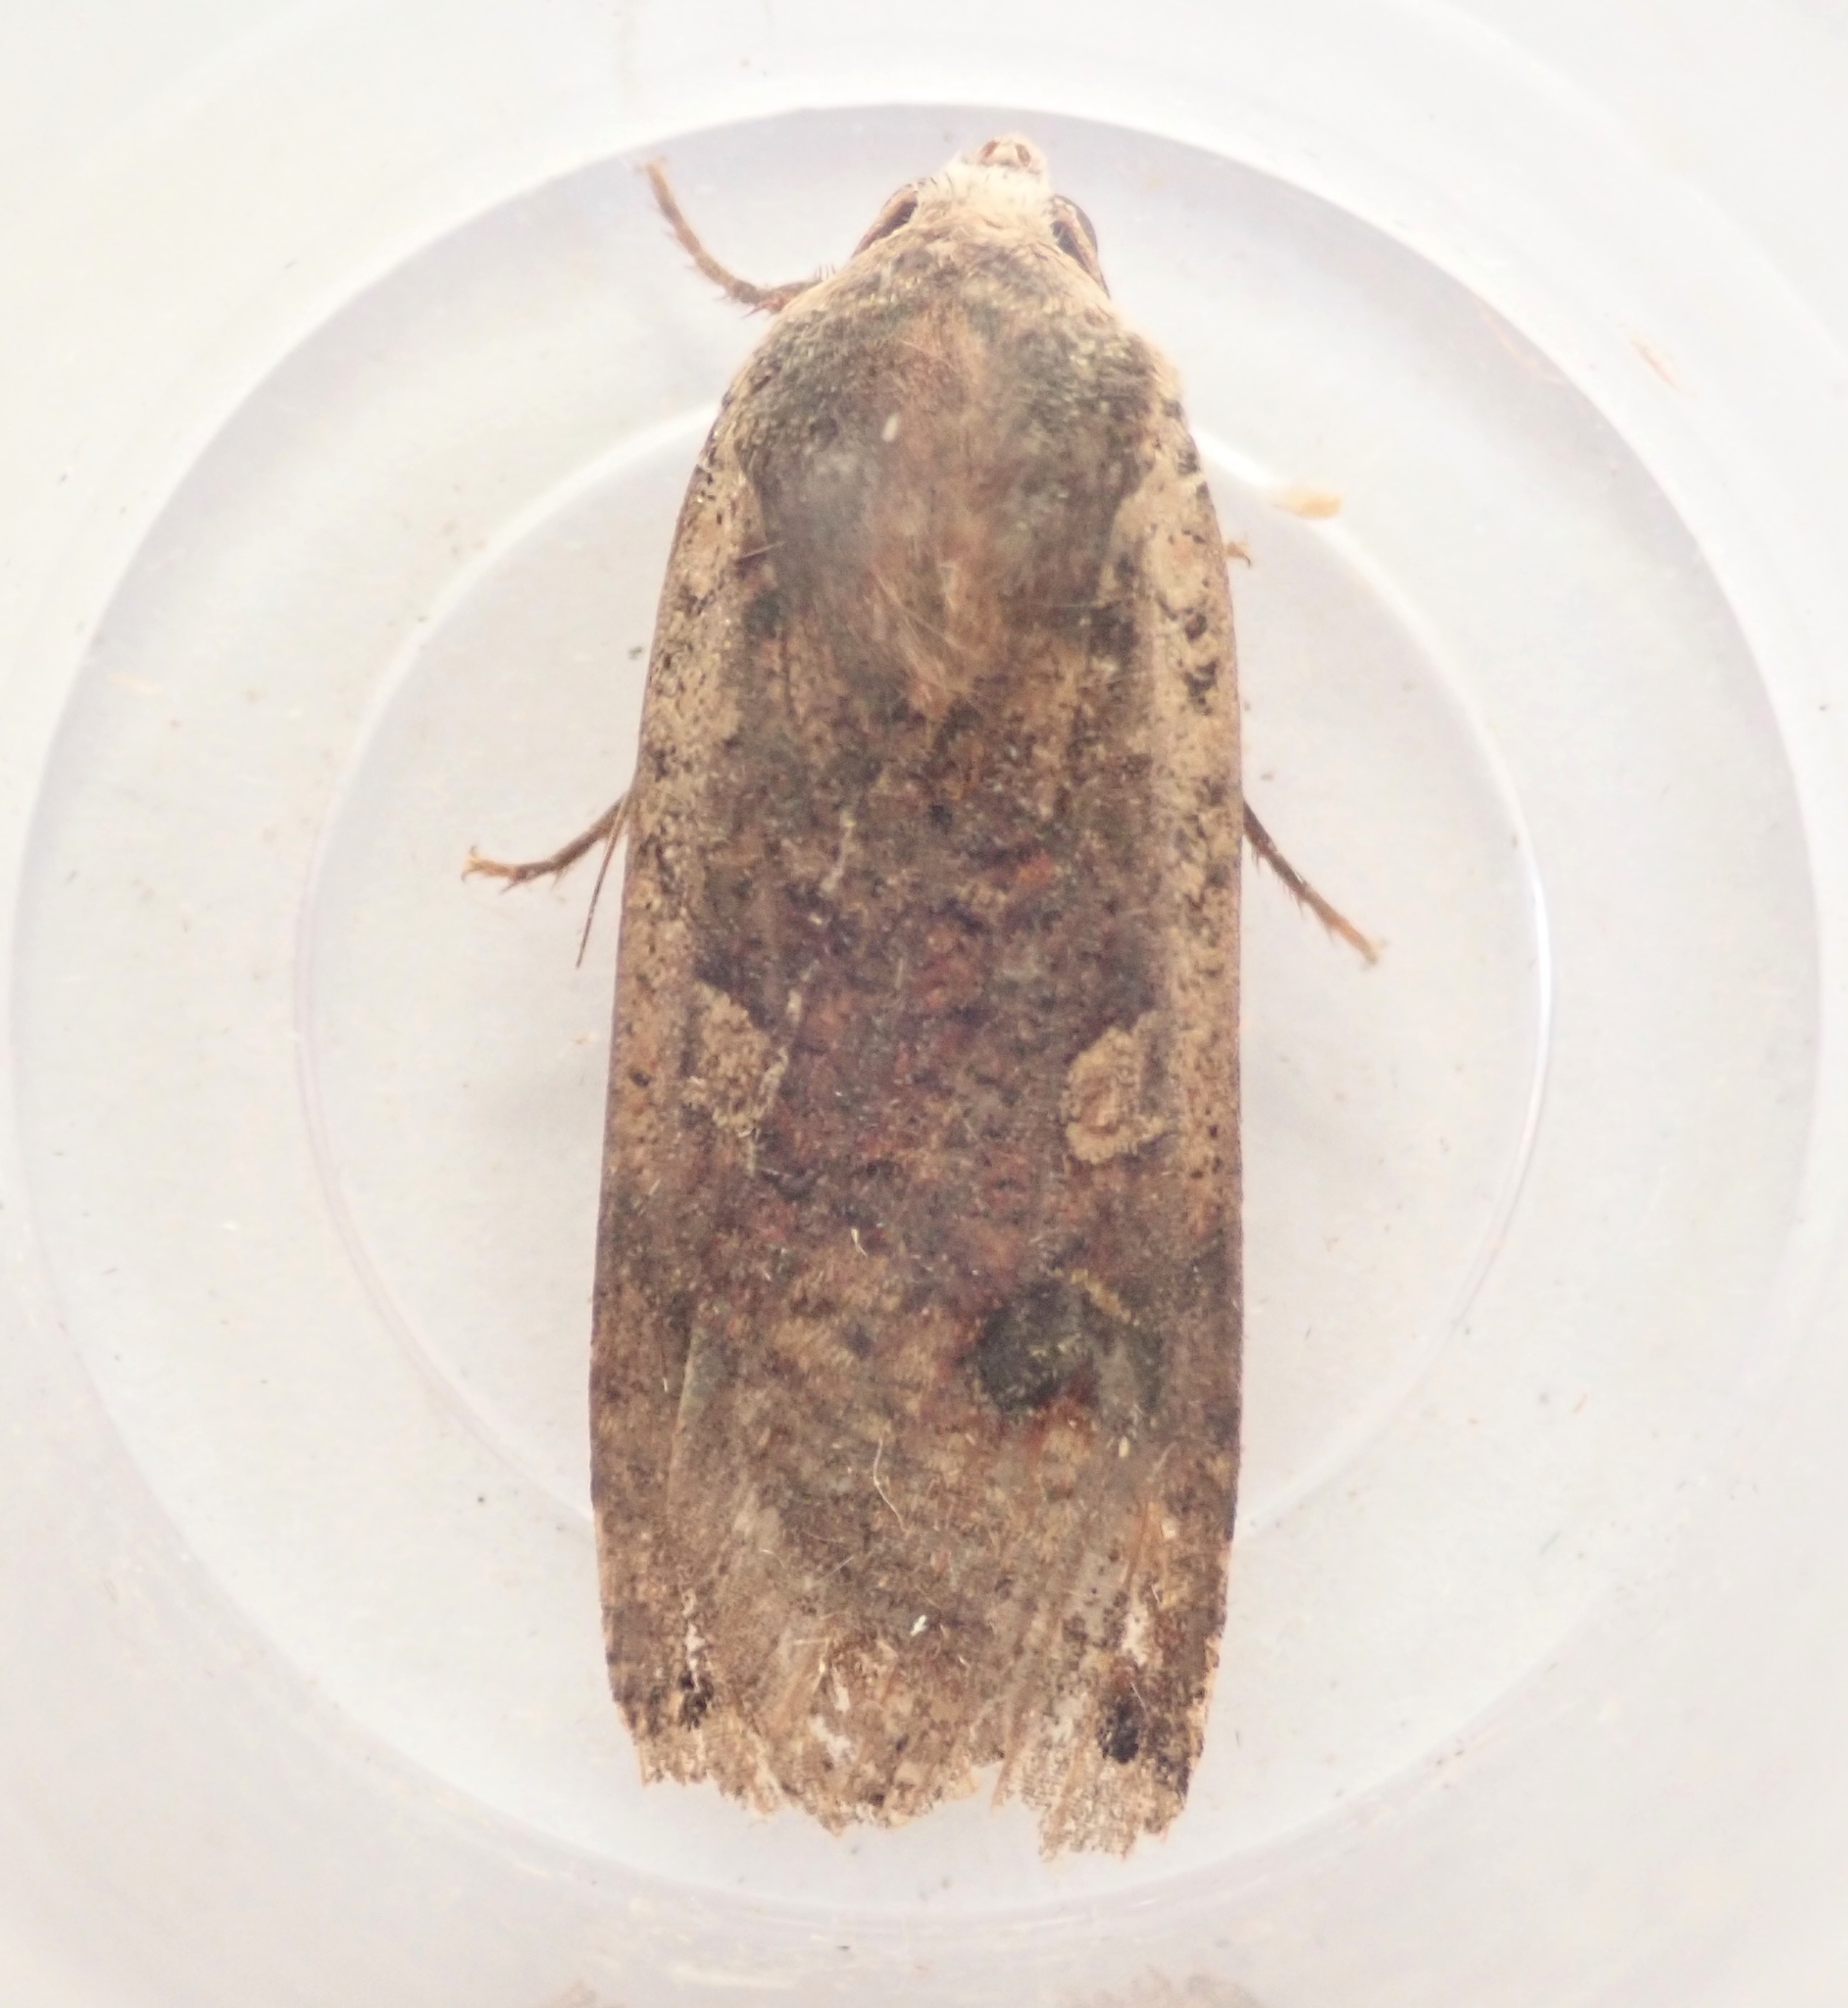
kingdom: Animalia
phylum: Arthropoda
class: Insecta
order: Lepidoptera
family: Noctuidae
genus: Noctua
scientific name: Noctua pronuba
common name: Large yellow underwing
